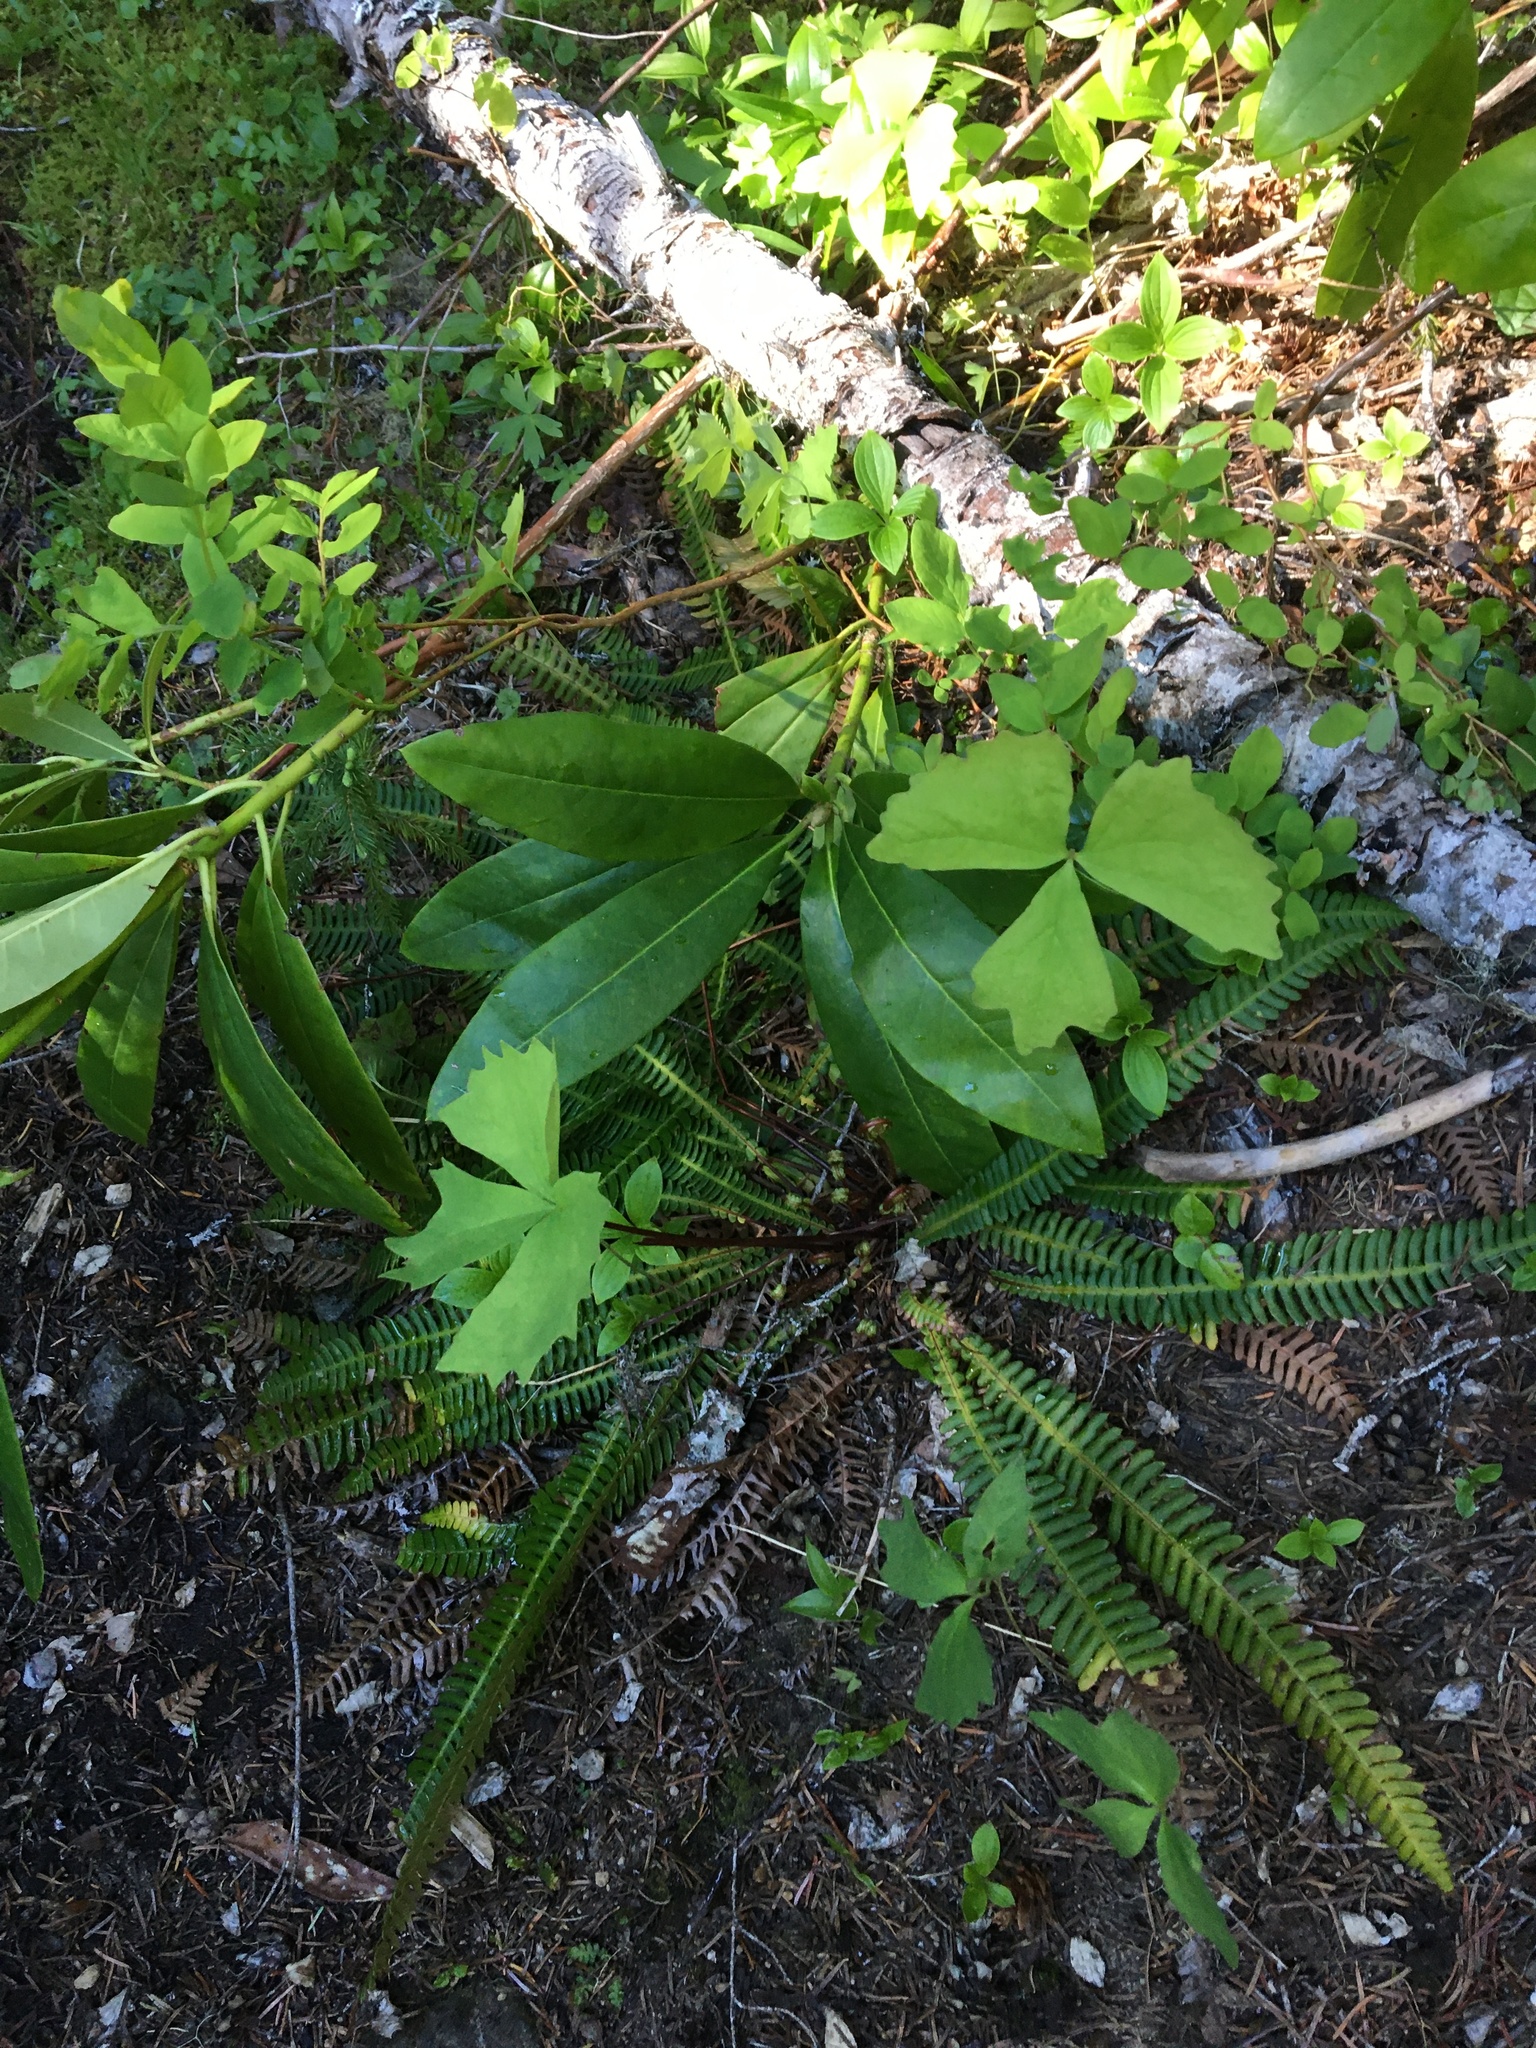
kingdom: Plantae
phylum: Tracheophyta
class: Polypodiopsida
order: Polypodiales
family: Blechnaceae
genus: Struthiopteris
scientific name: Struthiopteris spicant
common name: Deer fern
